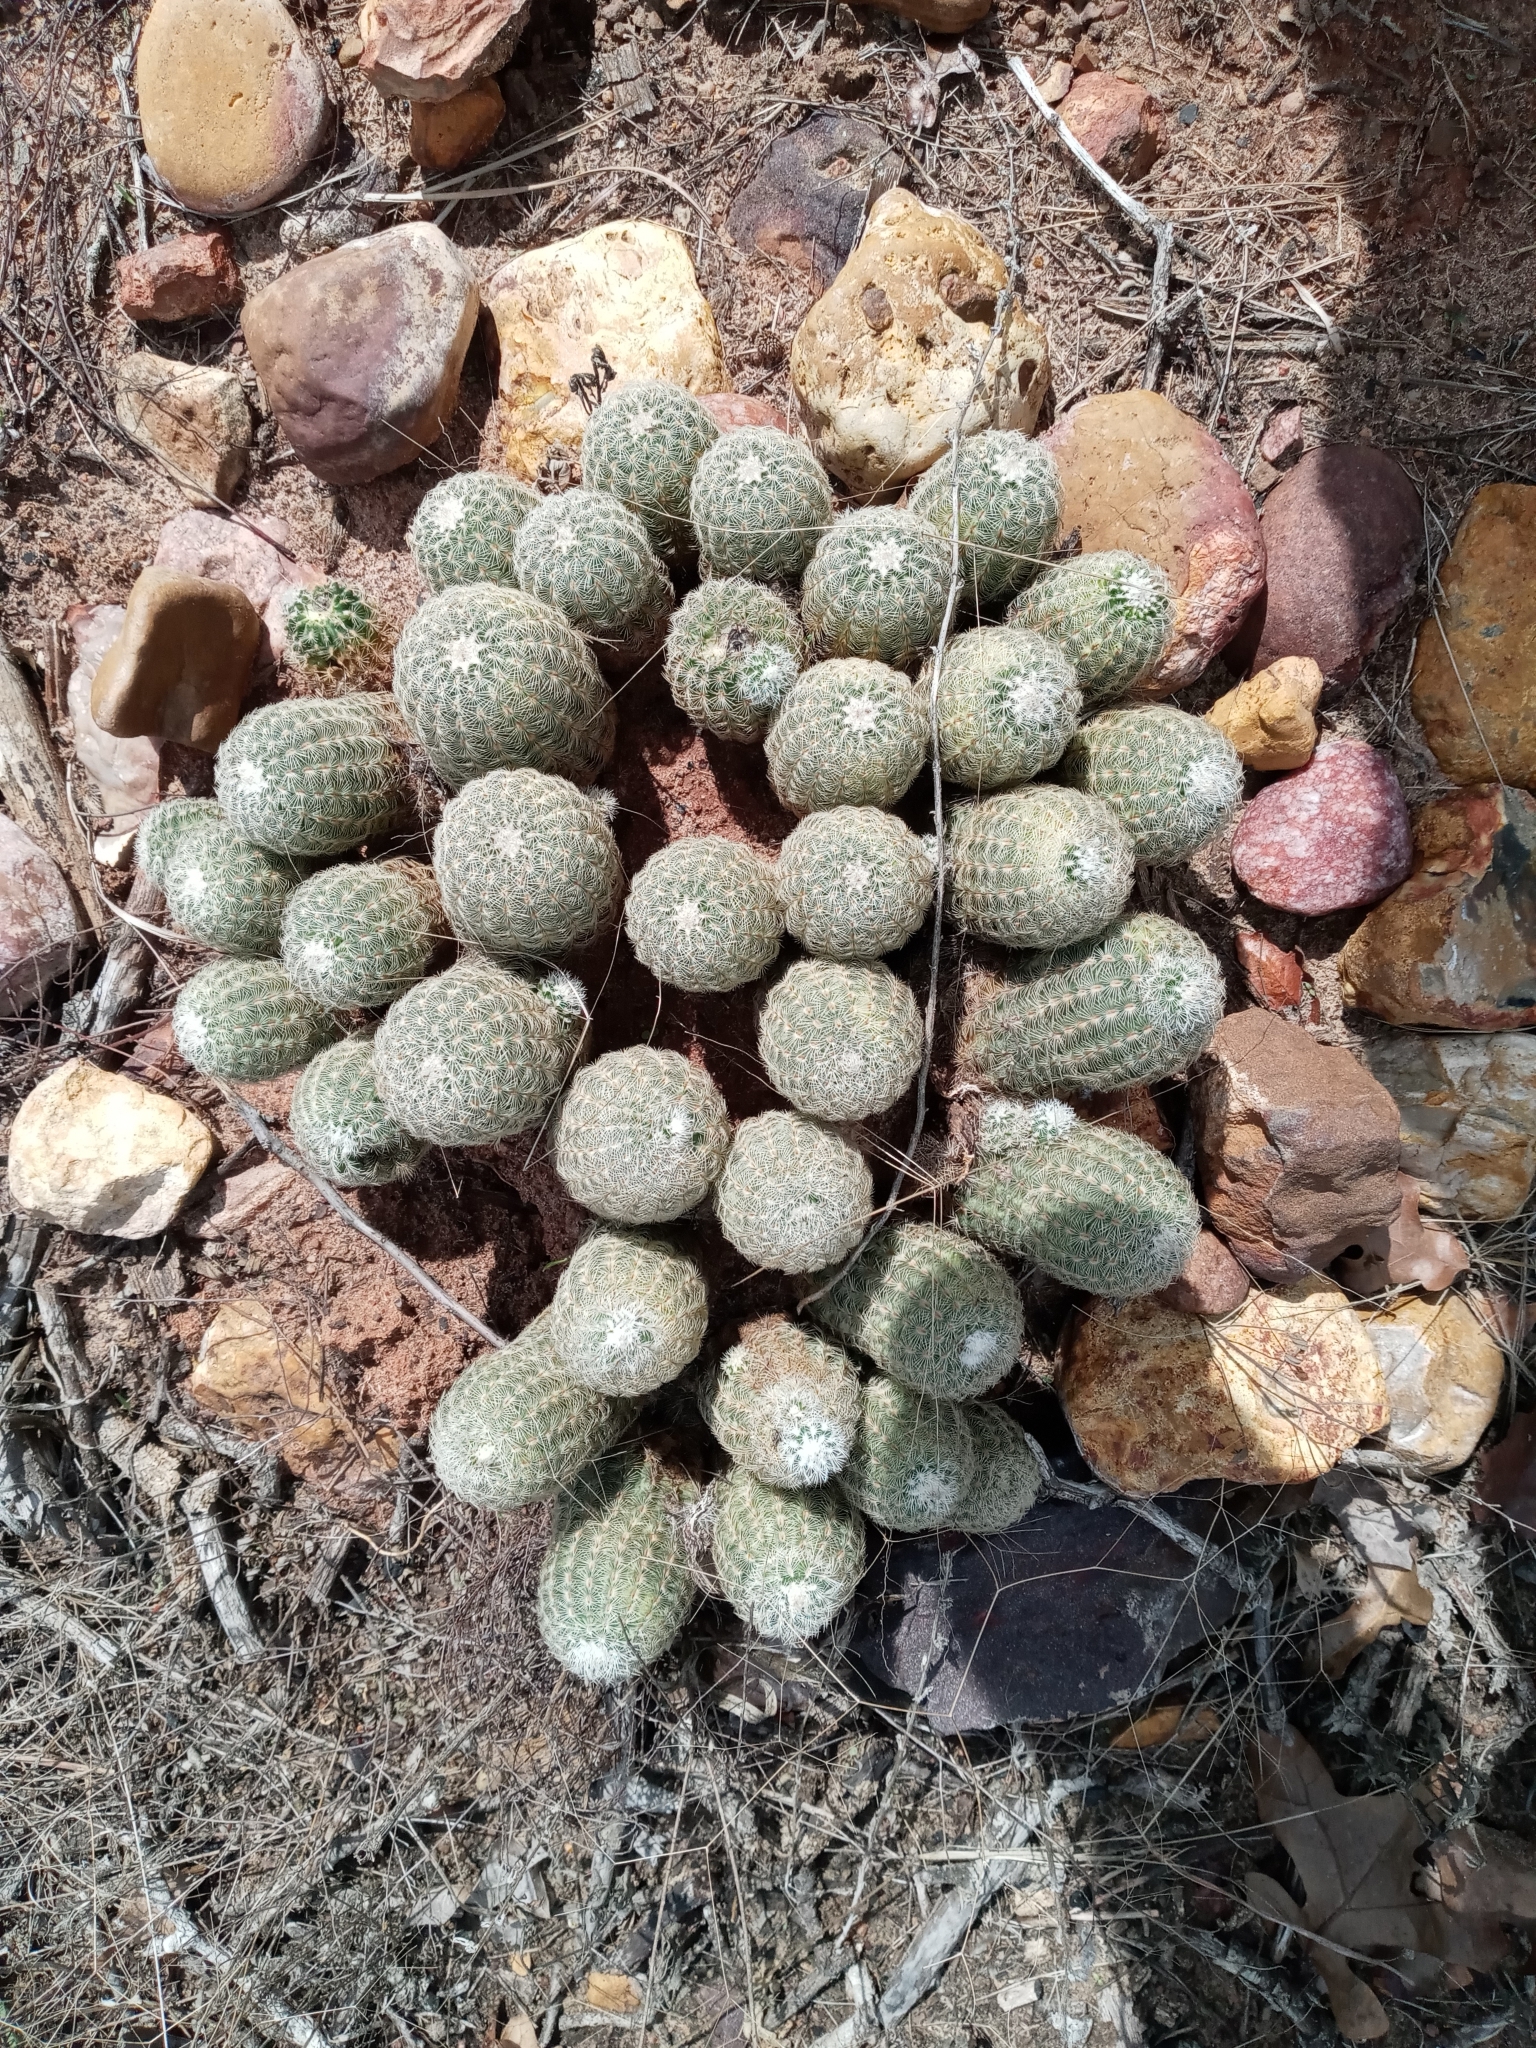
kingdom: Plantae
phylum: Tracheophyta
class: Magnoliopsida
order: Caryophyllales
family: Cactaceae
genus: Echinocereus
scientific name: Echinocereus reichenbachii
